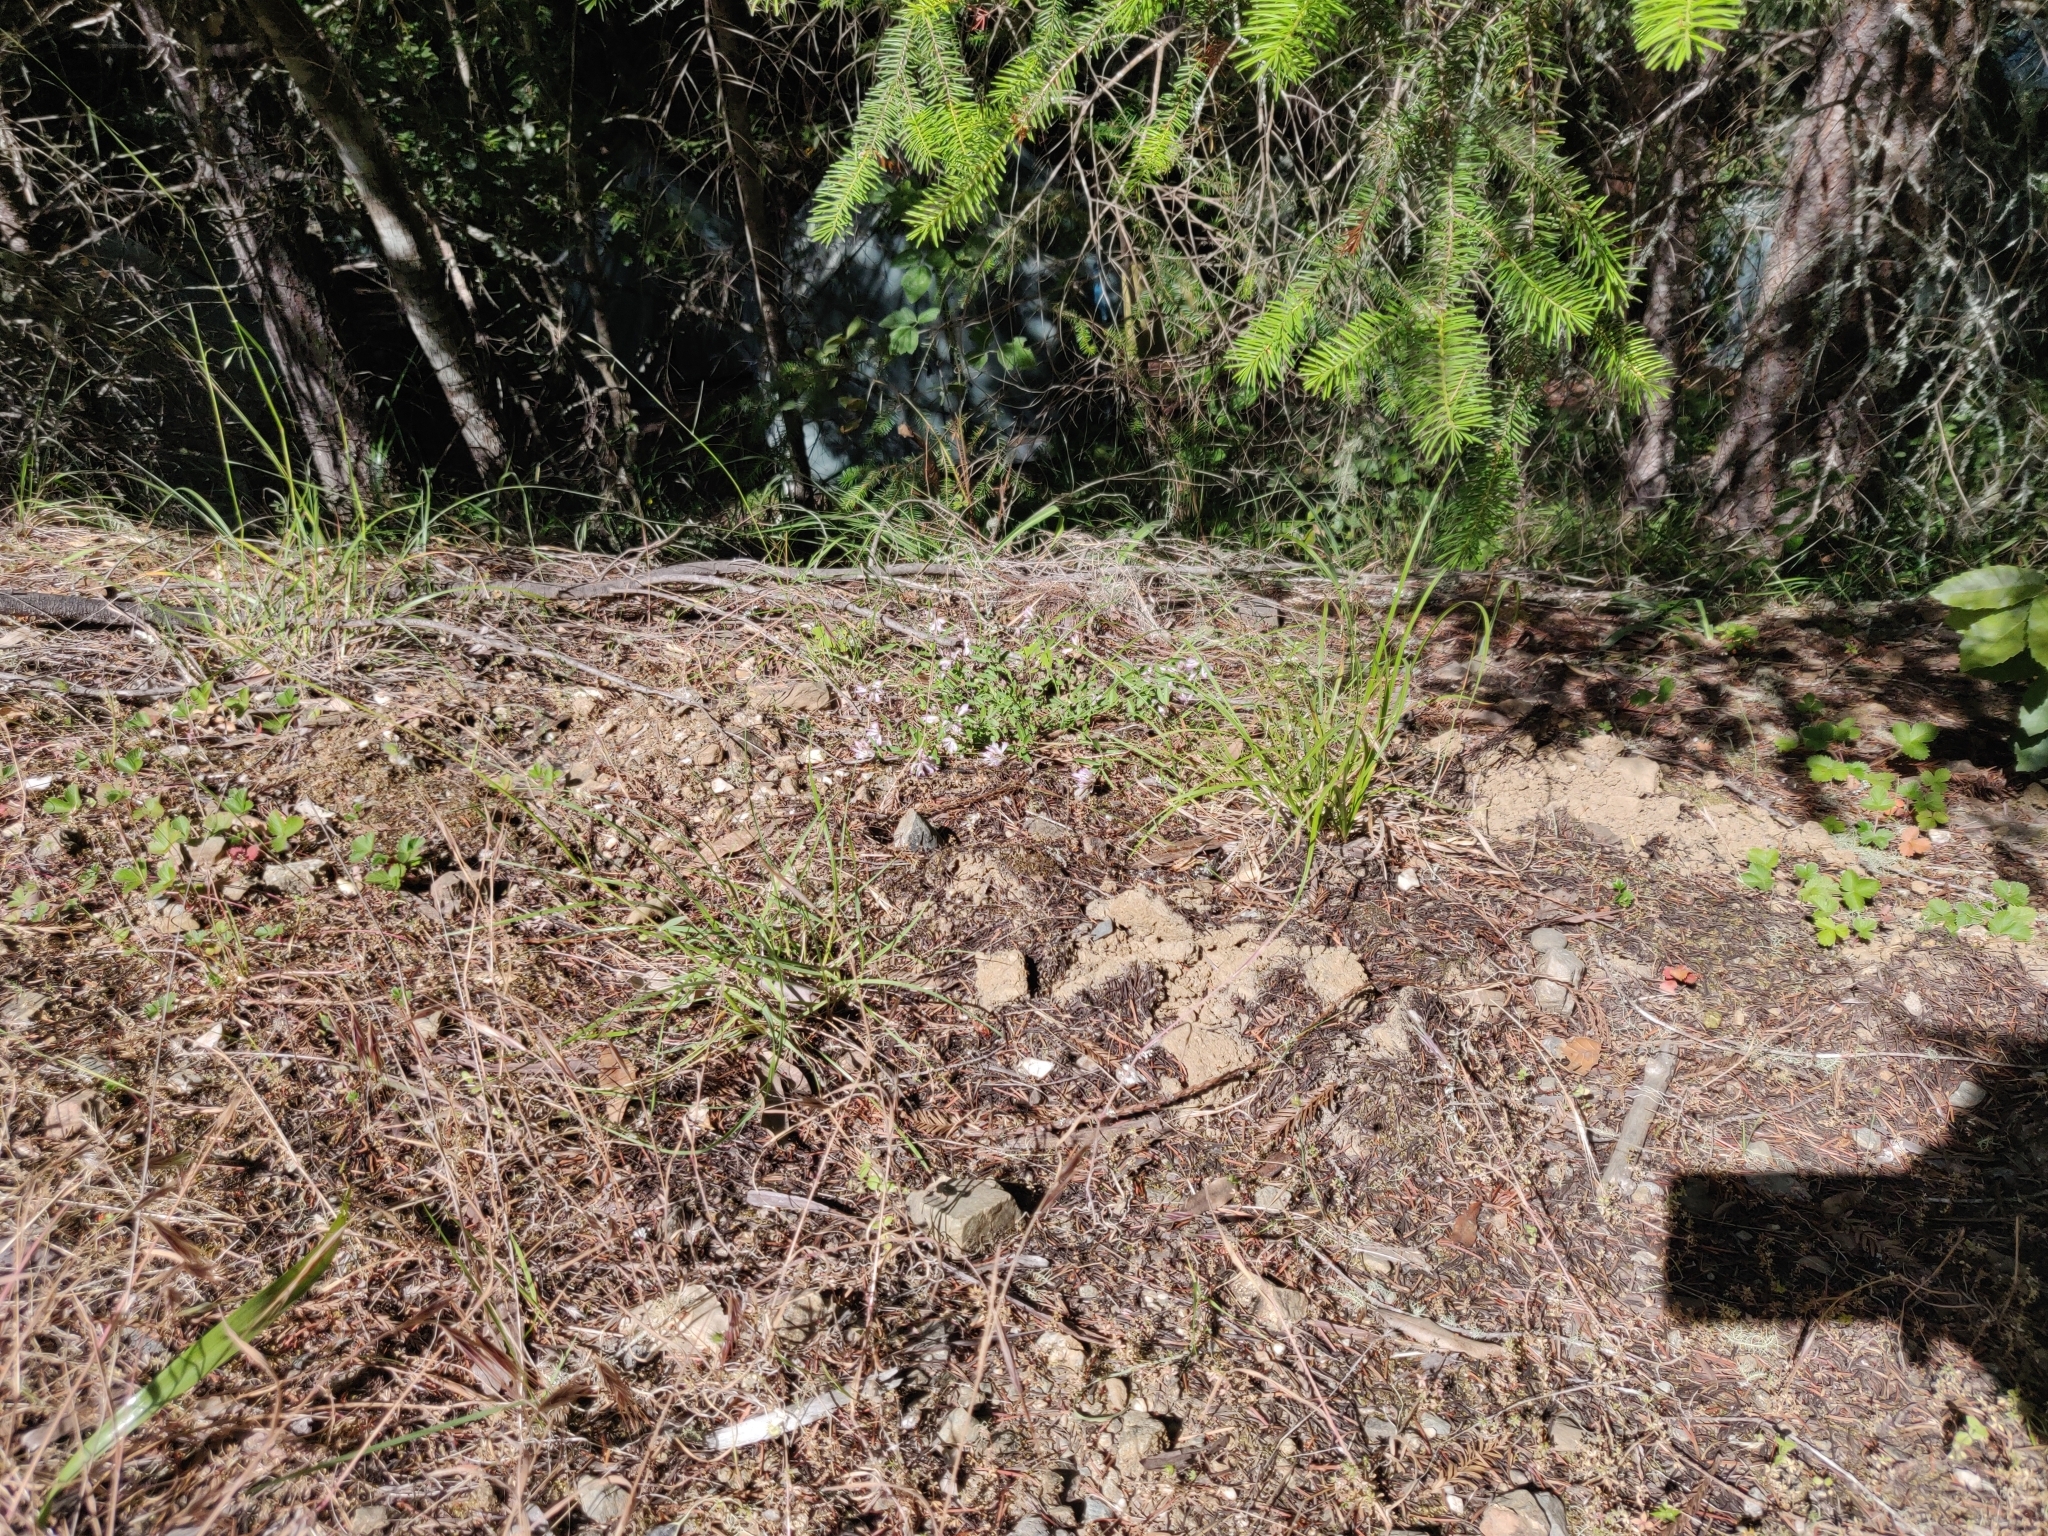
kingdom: Plantae
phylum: Tracheophyta
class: Magnoliopsida
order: Fabales
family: Polygalaceae
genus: Rhinotropis
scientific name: Rhinotropis californica
